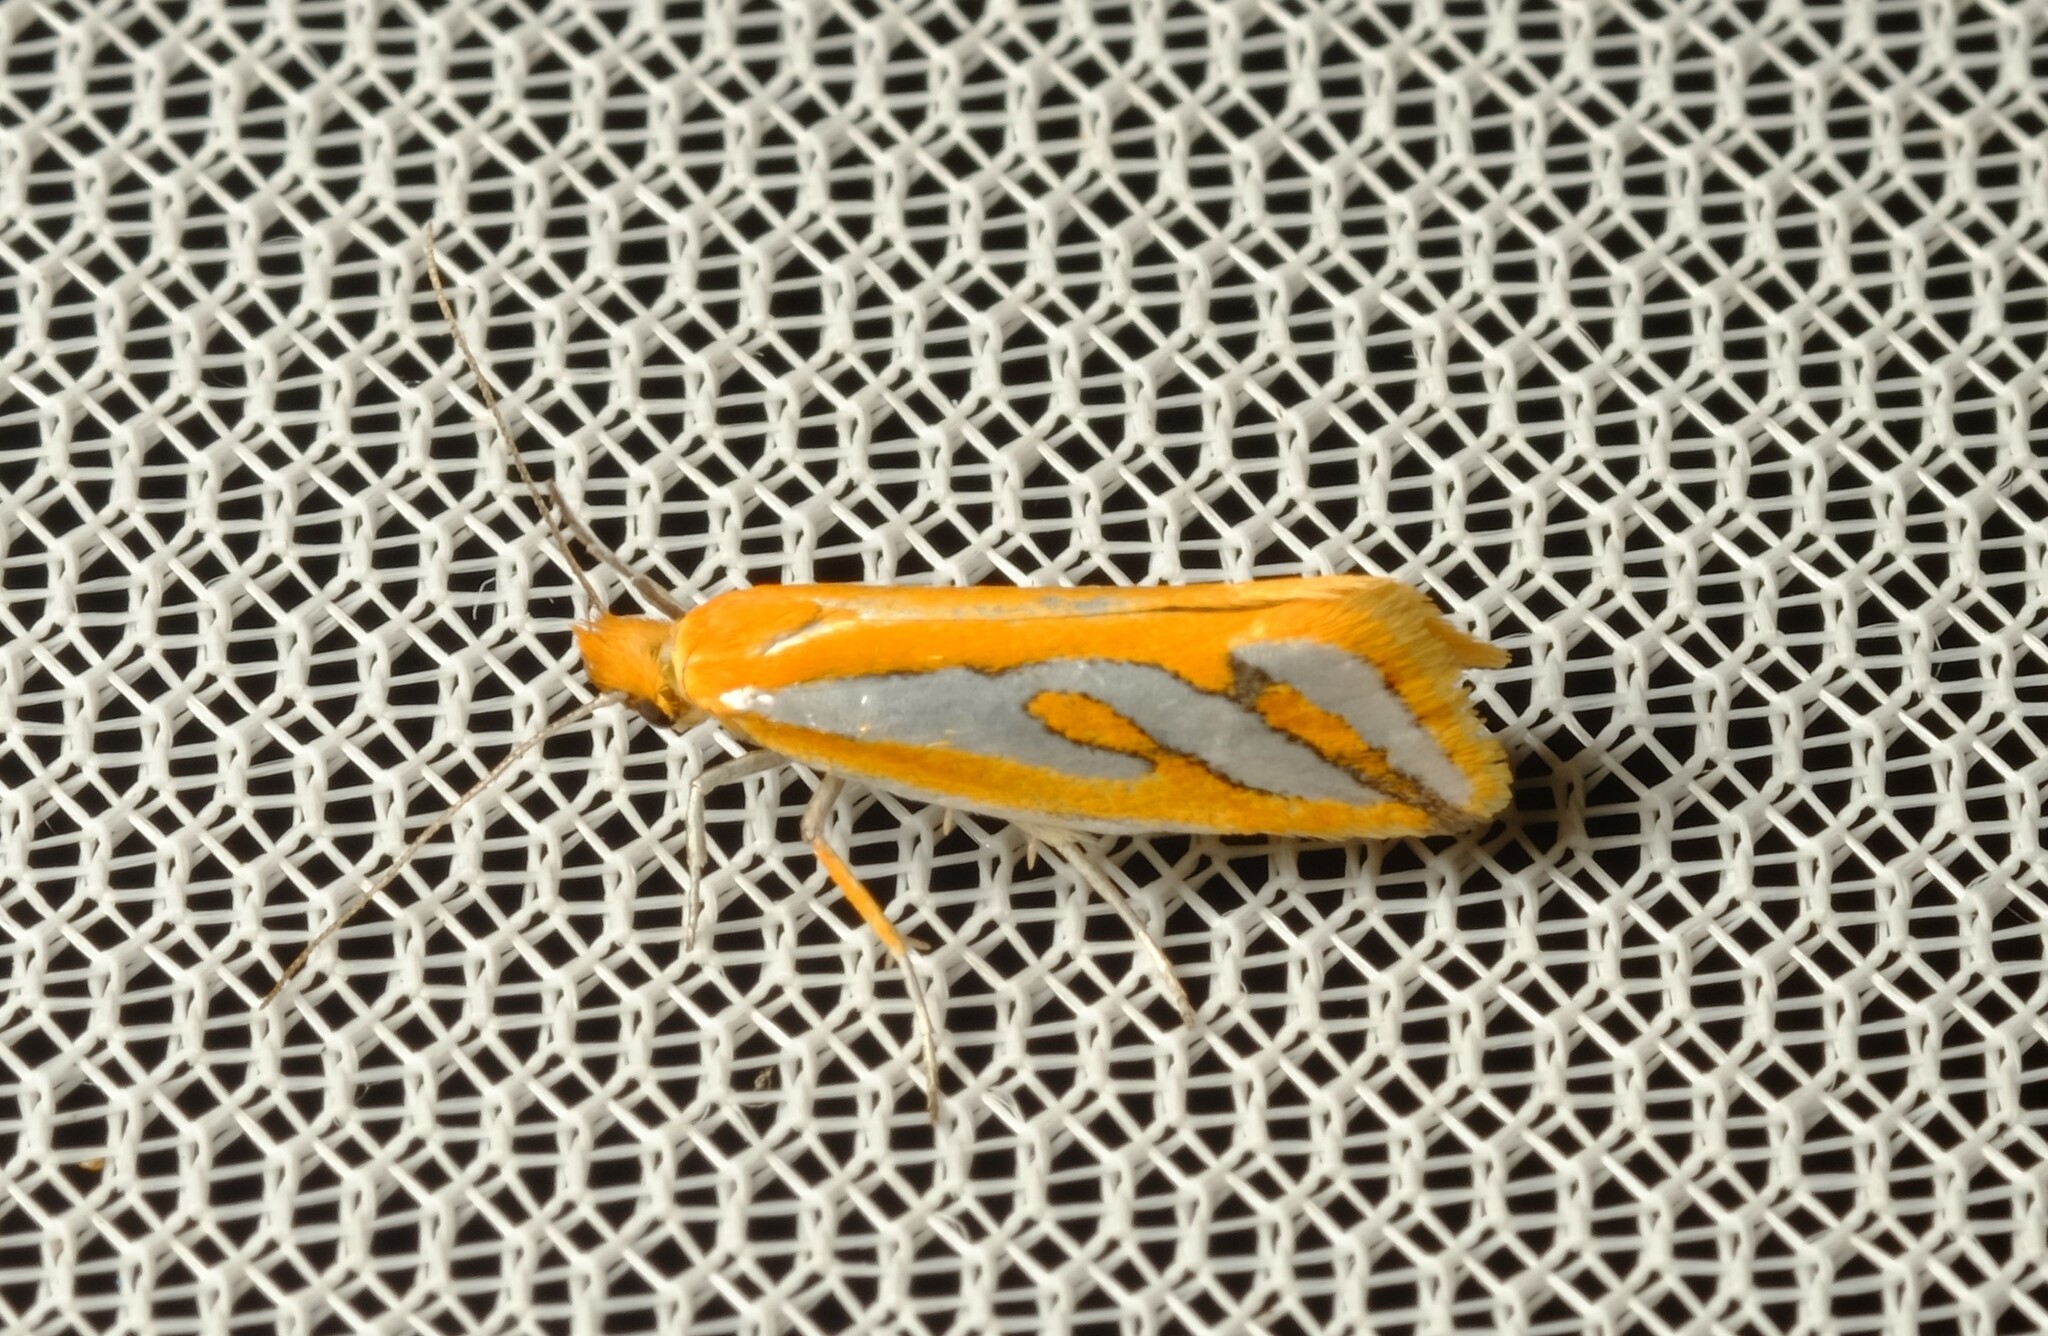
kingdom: Animalia
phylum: Arthropoda
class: Insecta
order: Lepidoptera
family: Depressariidae
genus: Thudaca
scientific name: Thudaca haplonota
